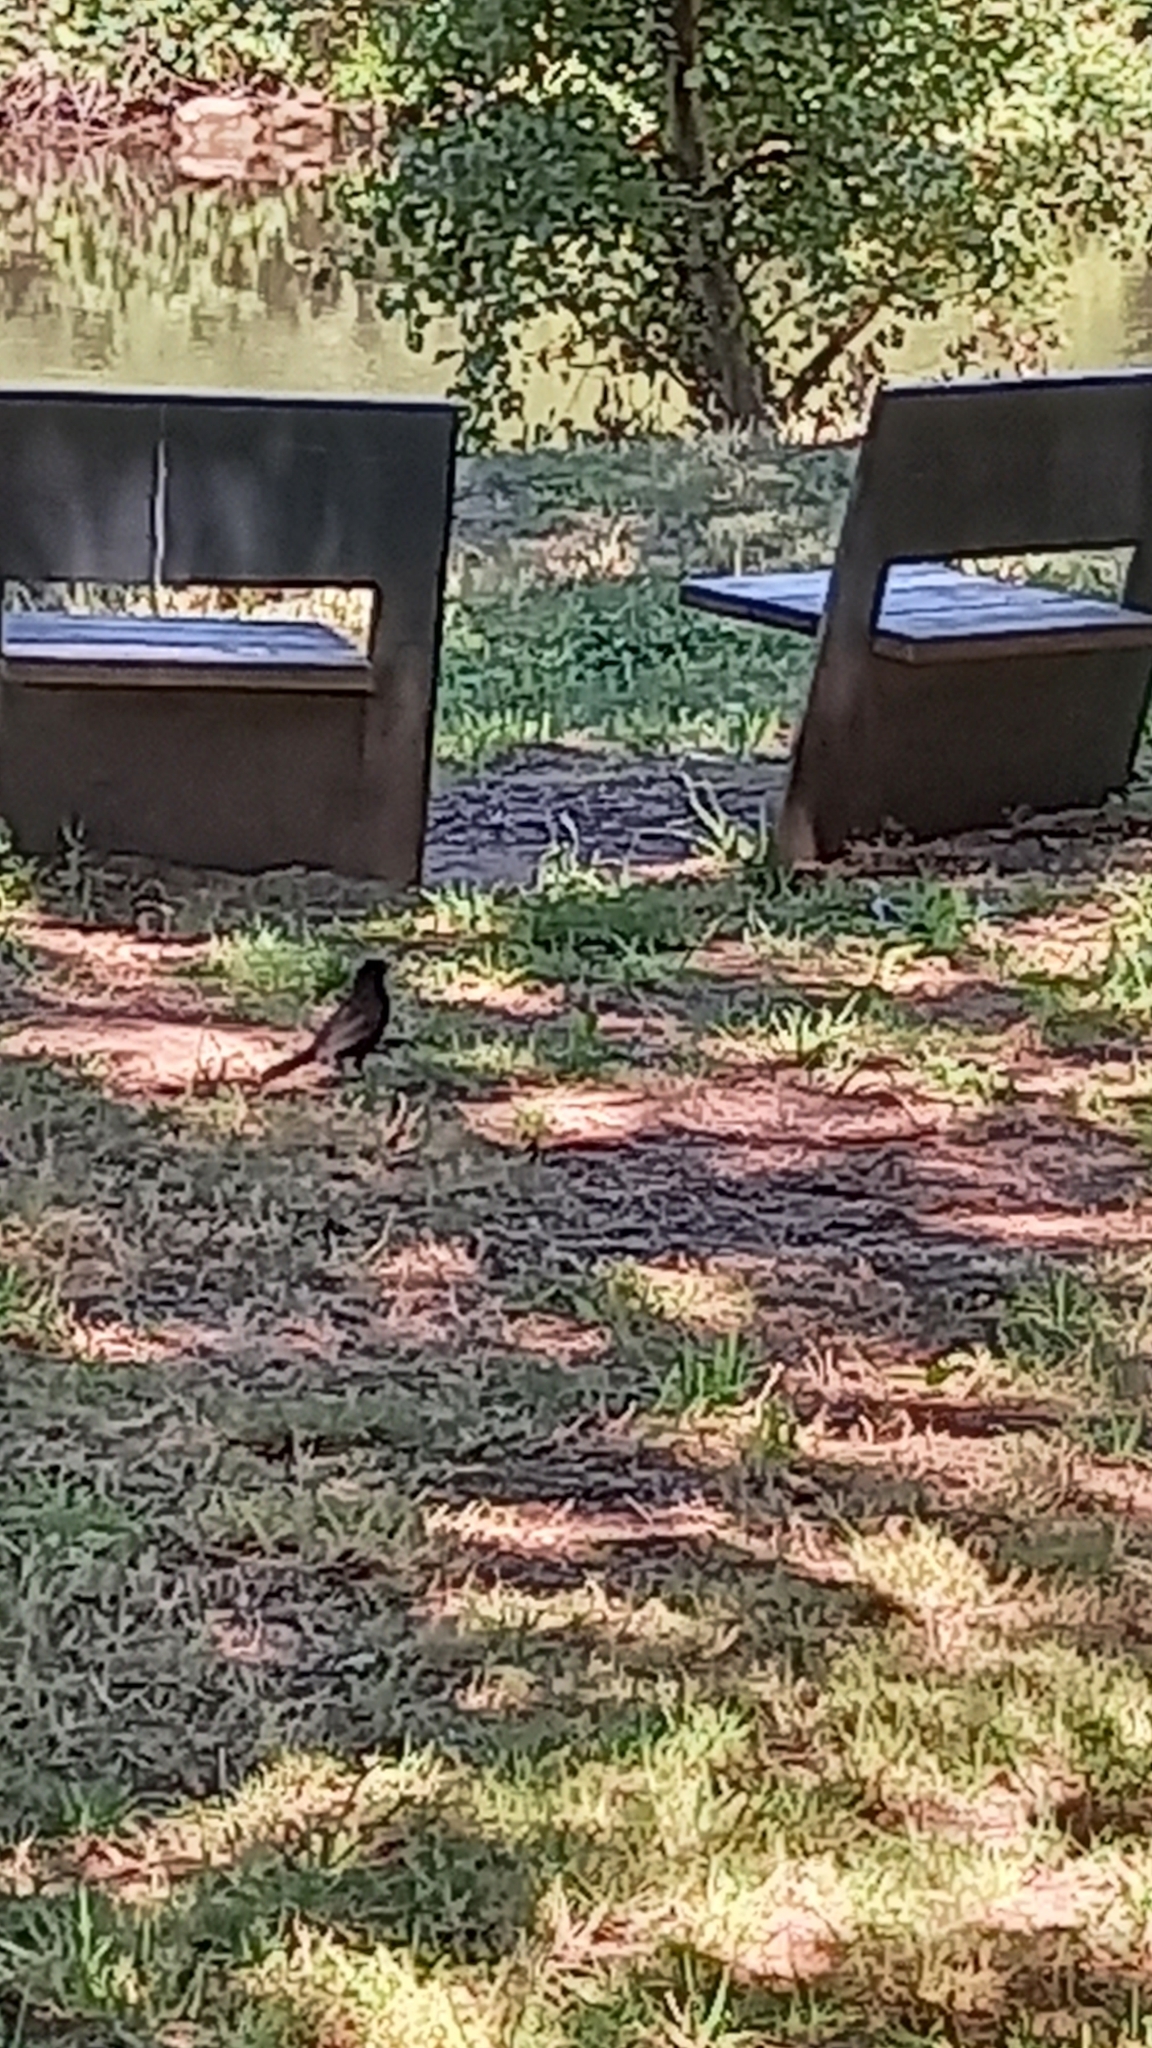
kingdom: Animalia
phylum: Chordata
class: Aves
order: Passeriformes
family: Turdidae
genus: Turdus
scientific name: Turdus merula
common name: Common blackbird
